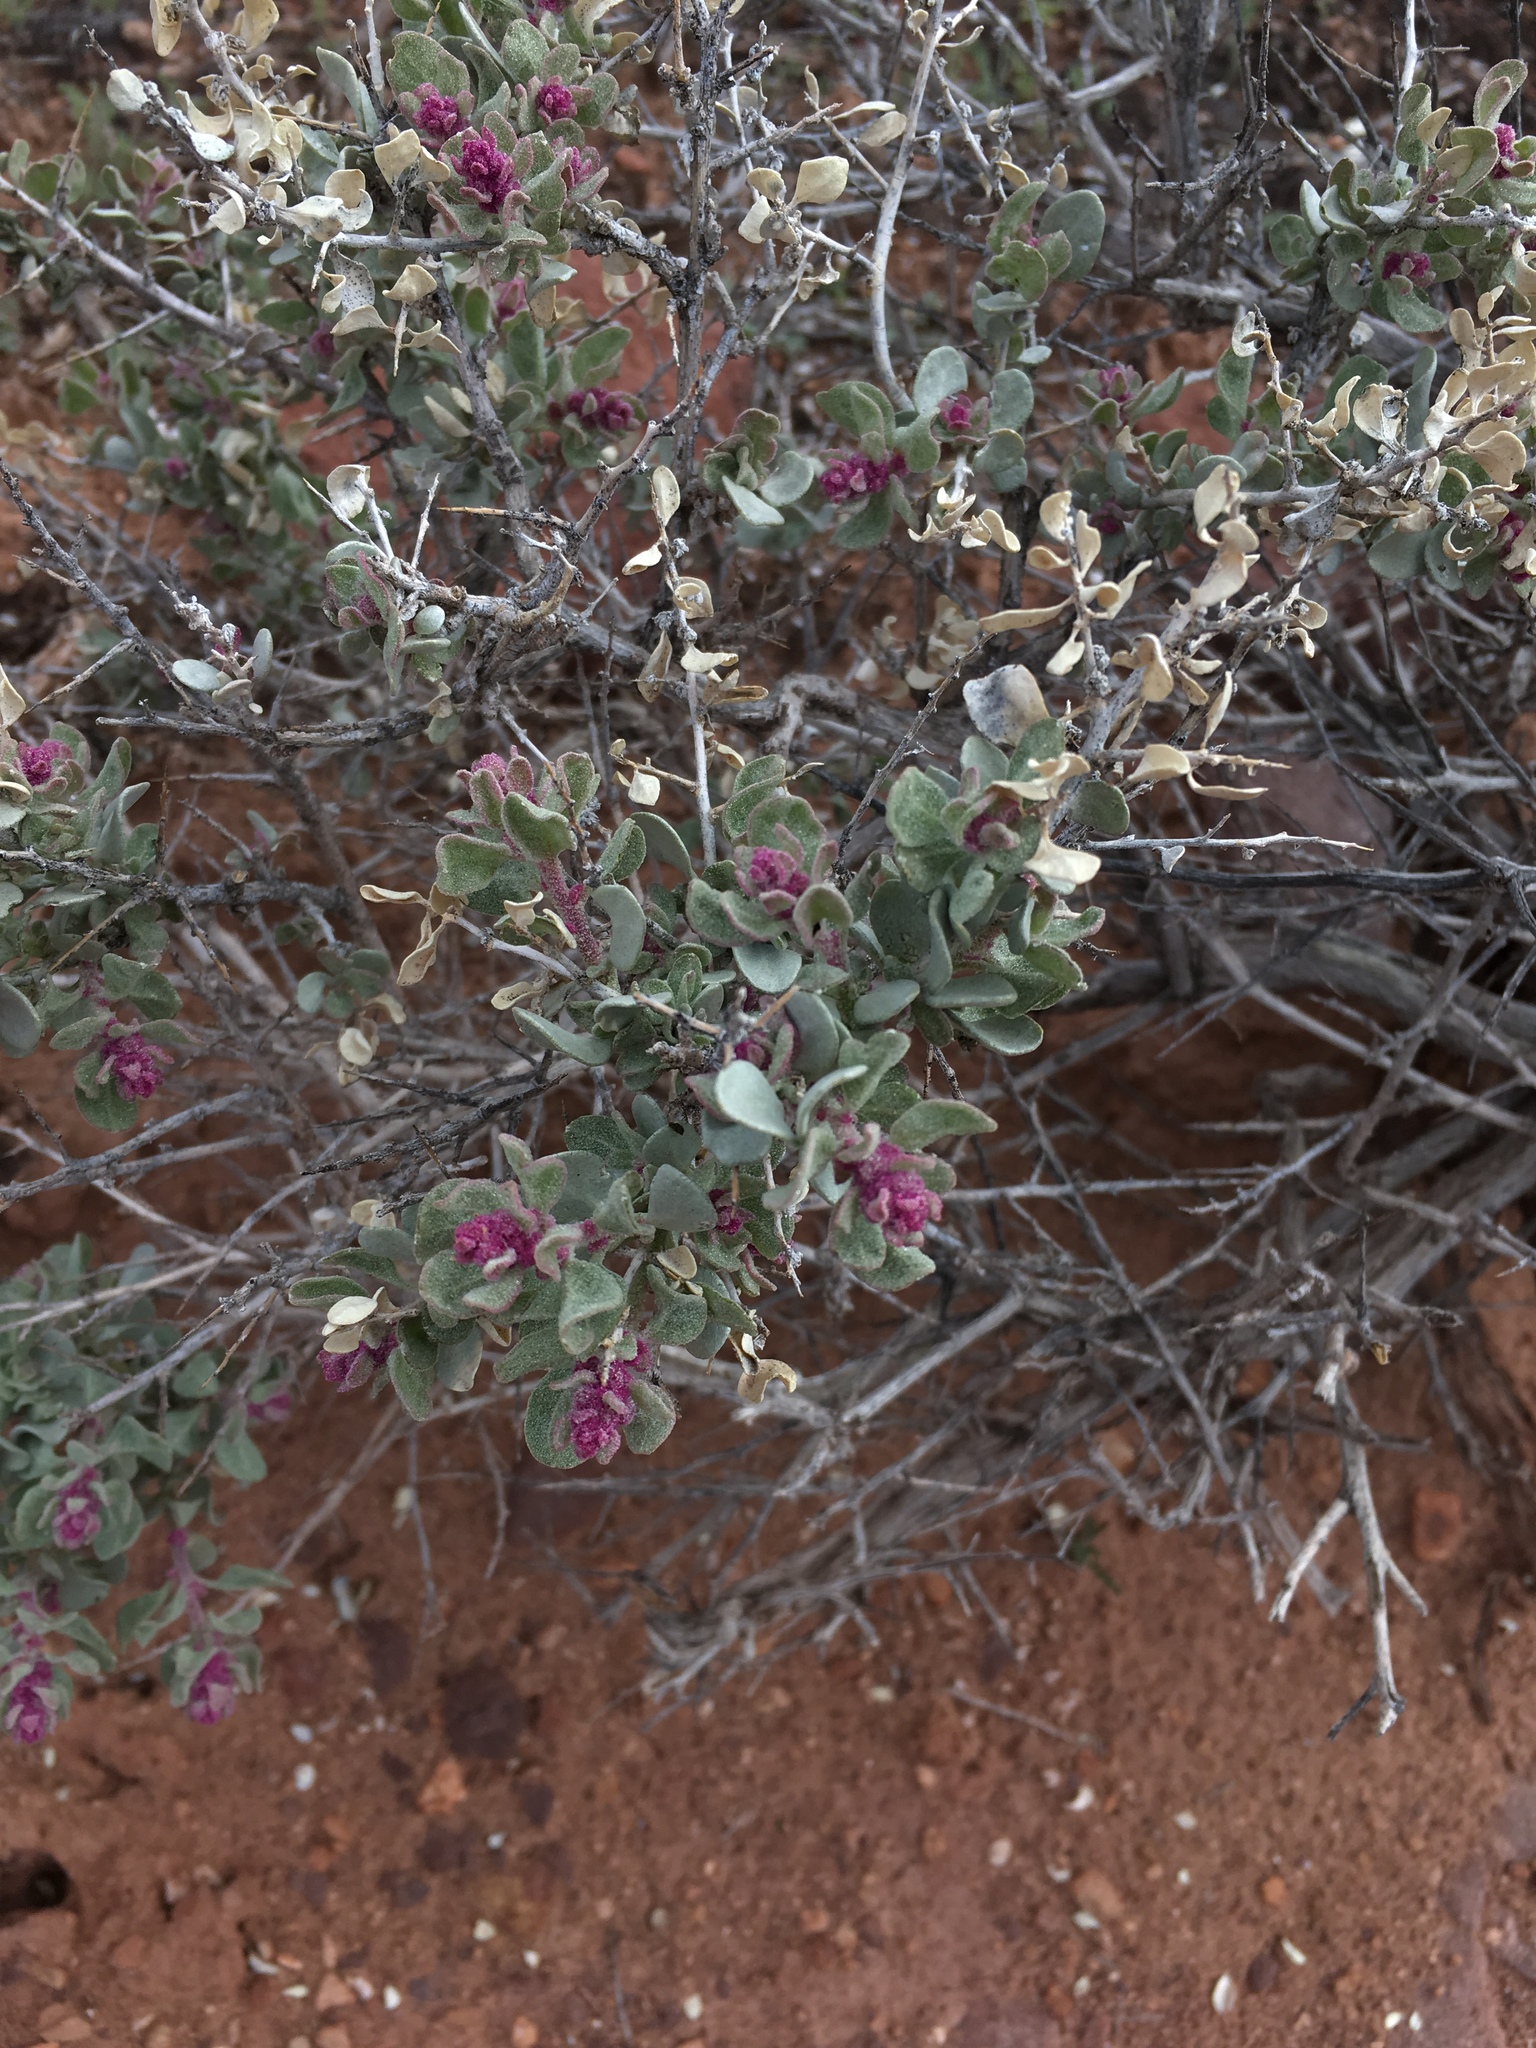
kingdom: Plantae
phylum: Tracheophyta
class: Magnoliopsida
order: Caryophyllales
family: Amaranthaceae
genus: Atriplex
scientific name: Atriplex confertifolia
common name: Shadscale
